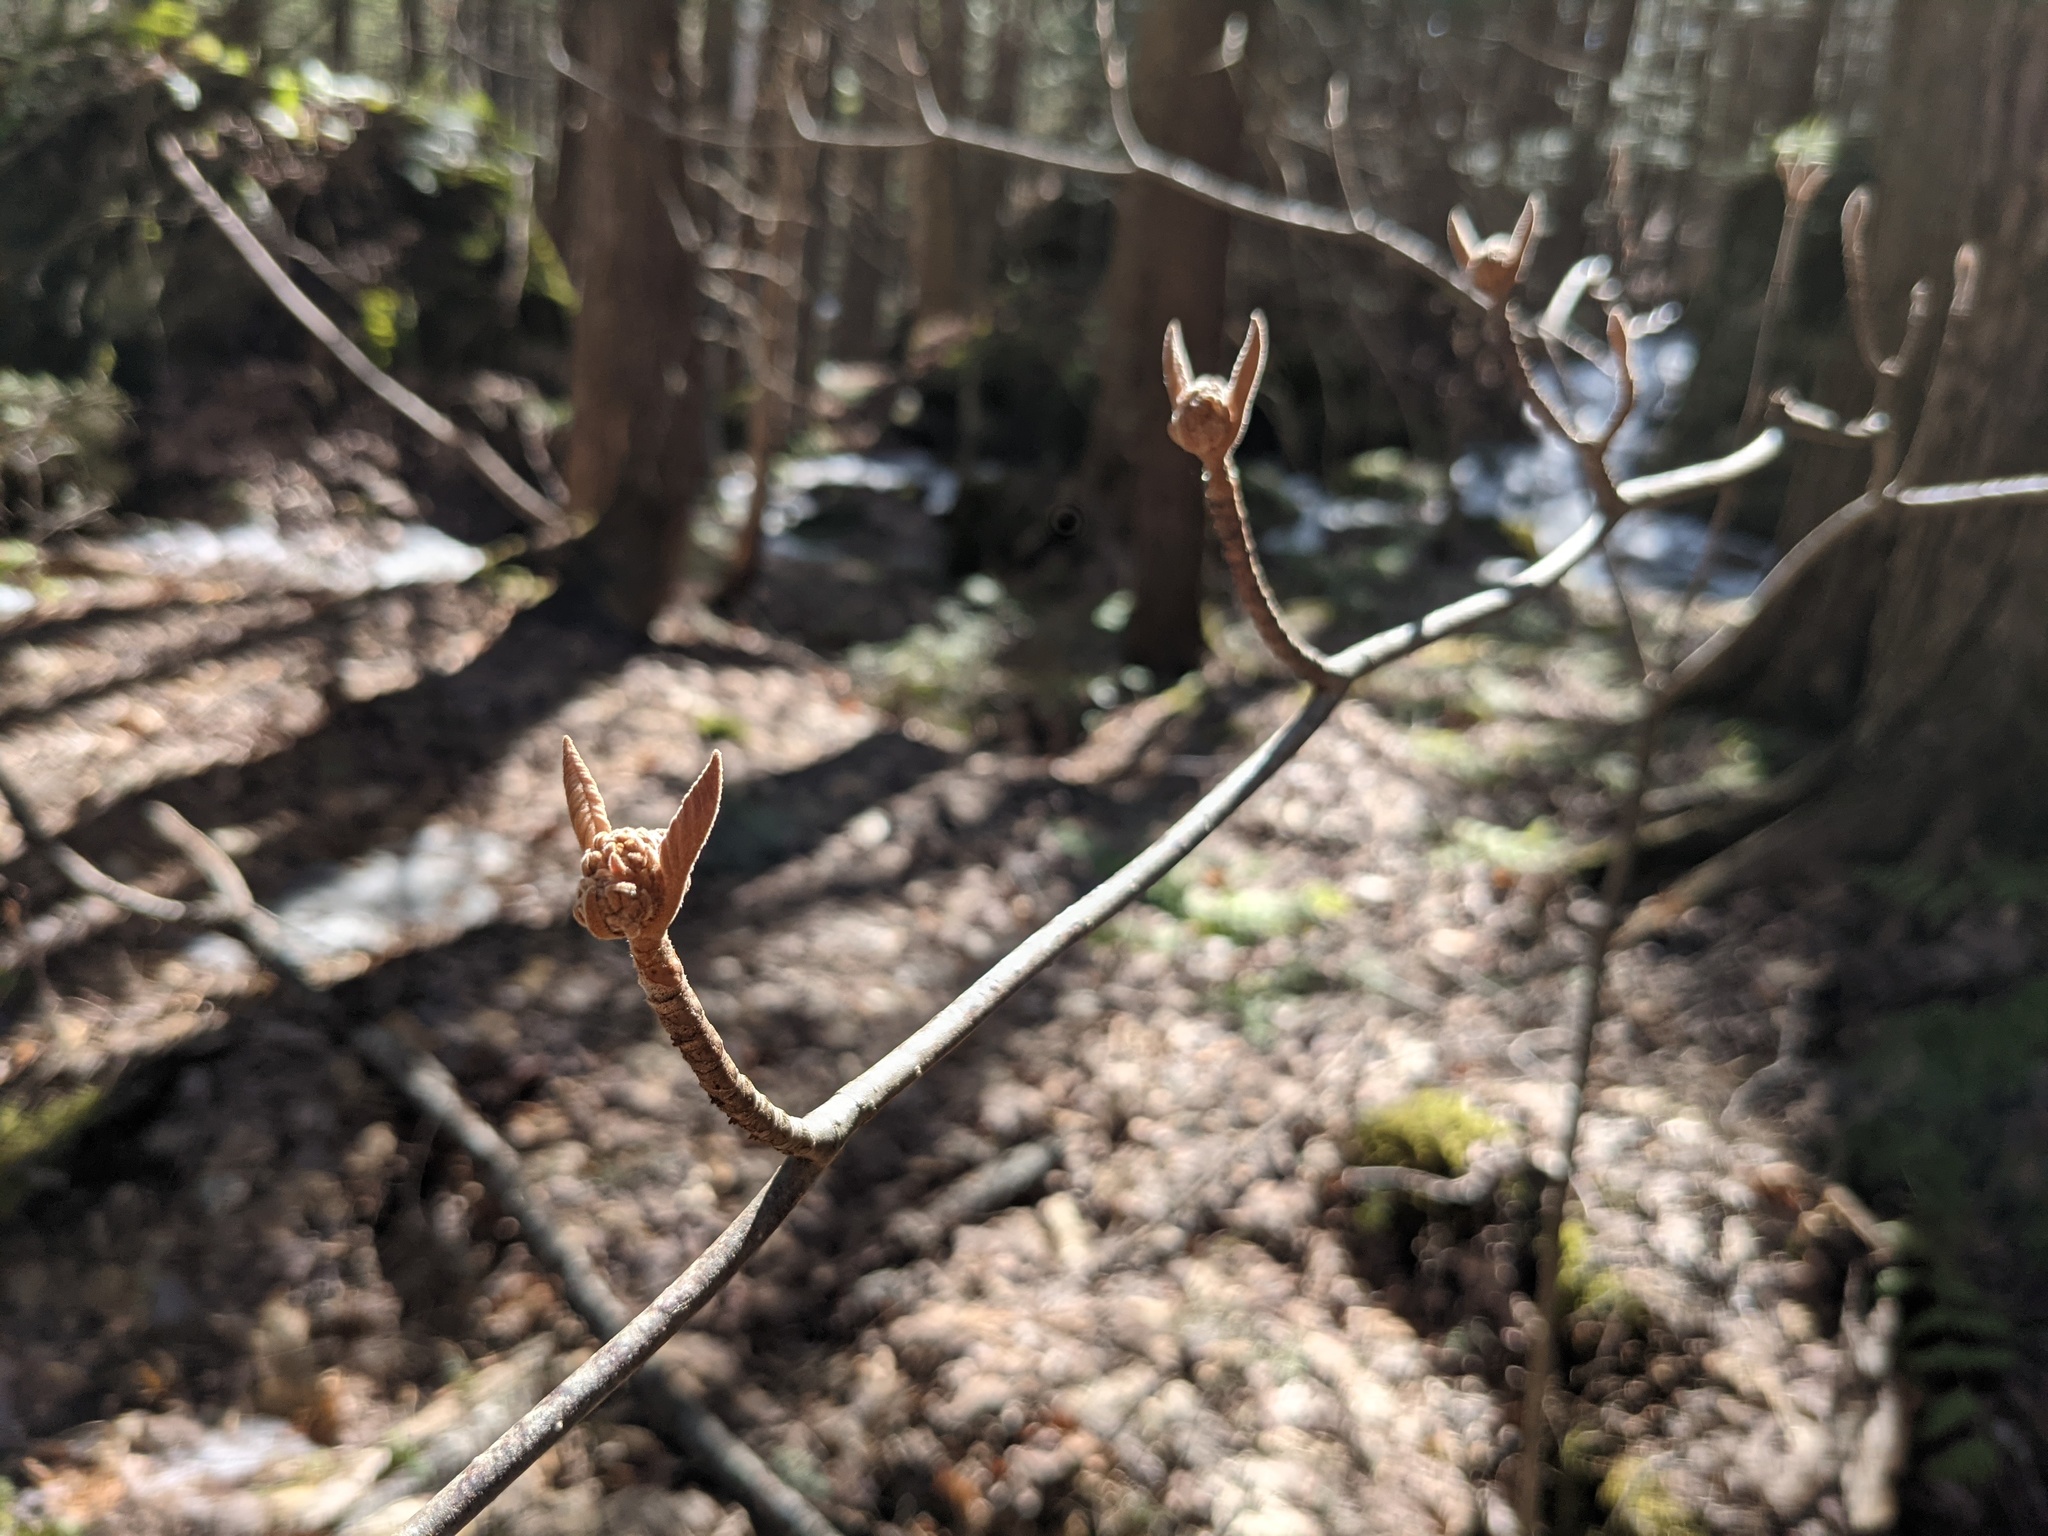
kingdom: Plantae
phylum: Tracheophyta
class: Magnoliopsida
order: Dipsacales
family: Viburnaceae
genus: Viburnum
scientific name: Viburnum lantanoides
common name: Hobblebush
